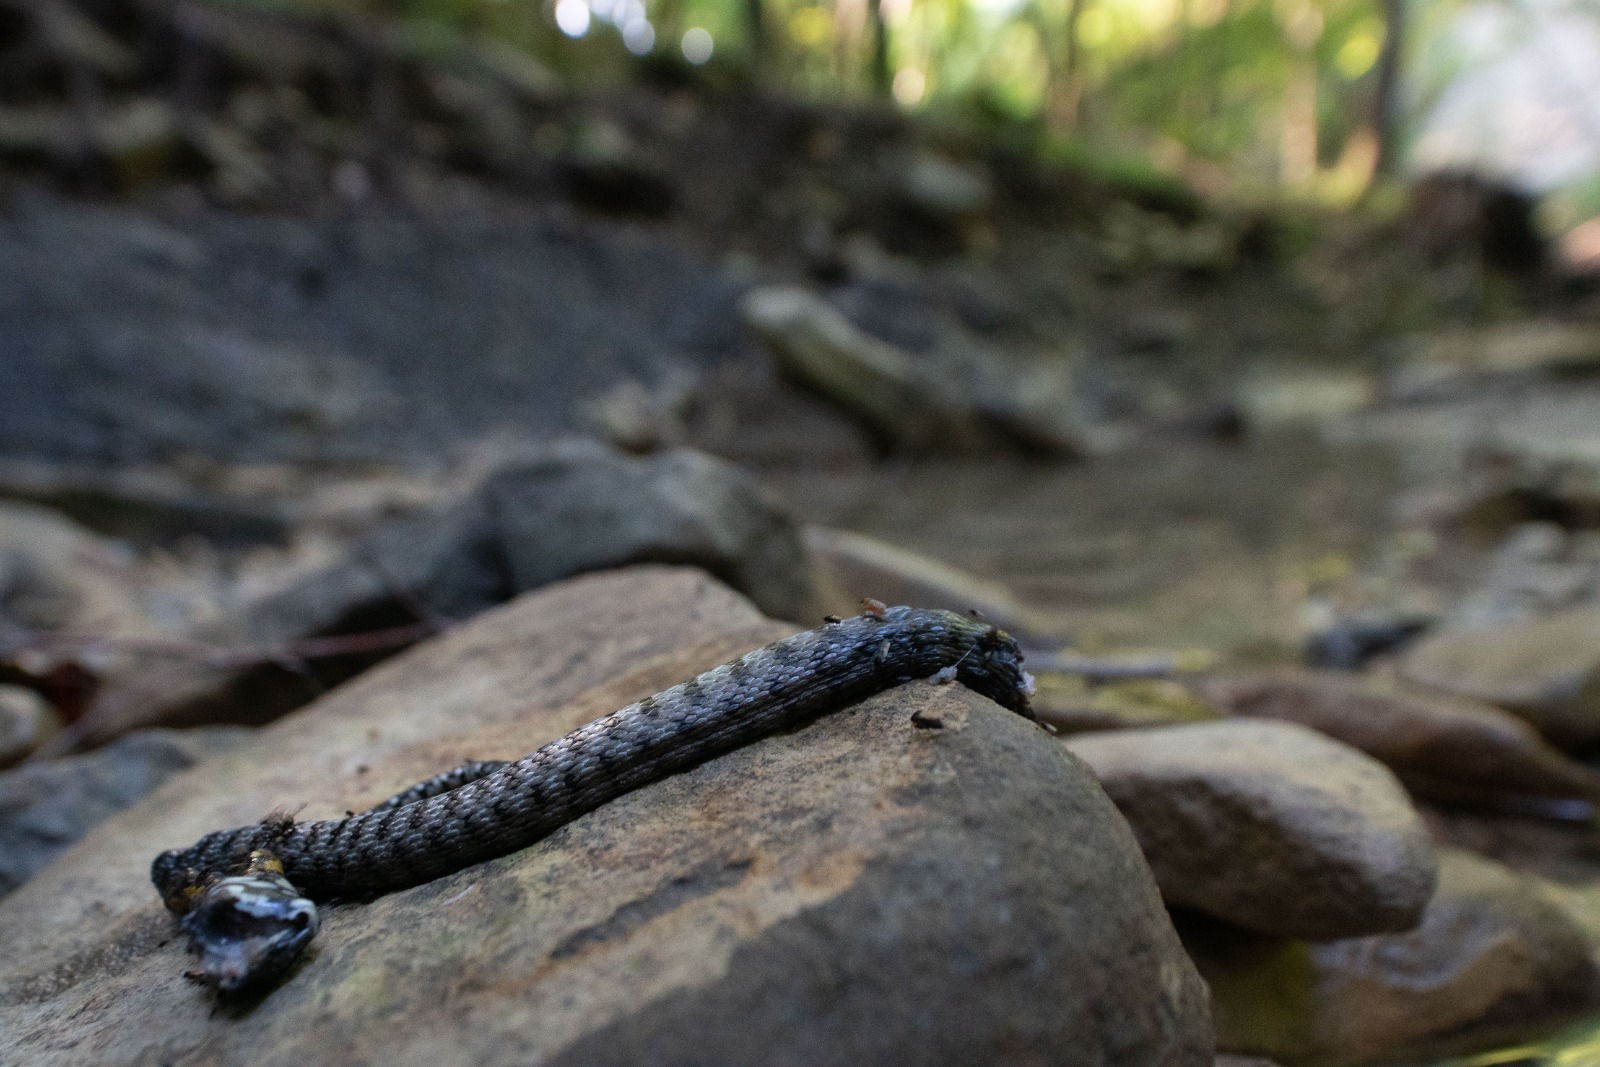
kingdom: Animalia
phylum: Chordata
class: Squamata
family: Colubridae
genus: Natrix
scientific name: Natrix tessellata
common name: Dice snake
